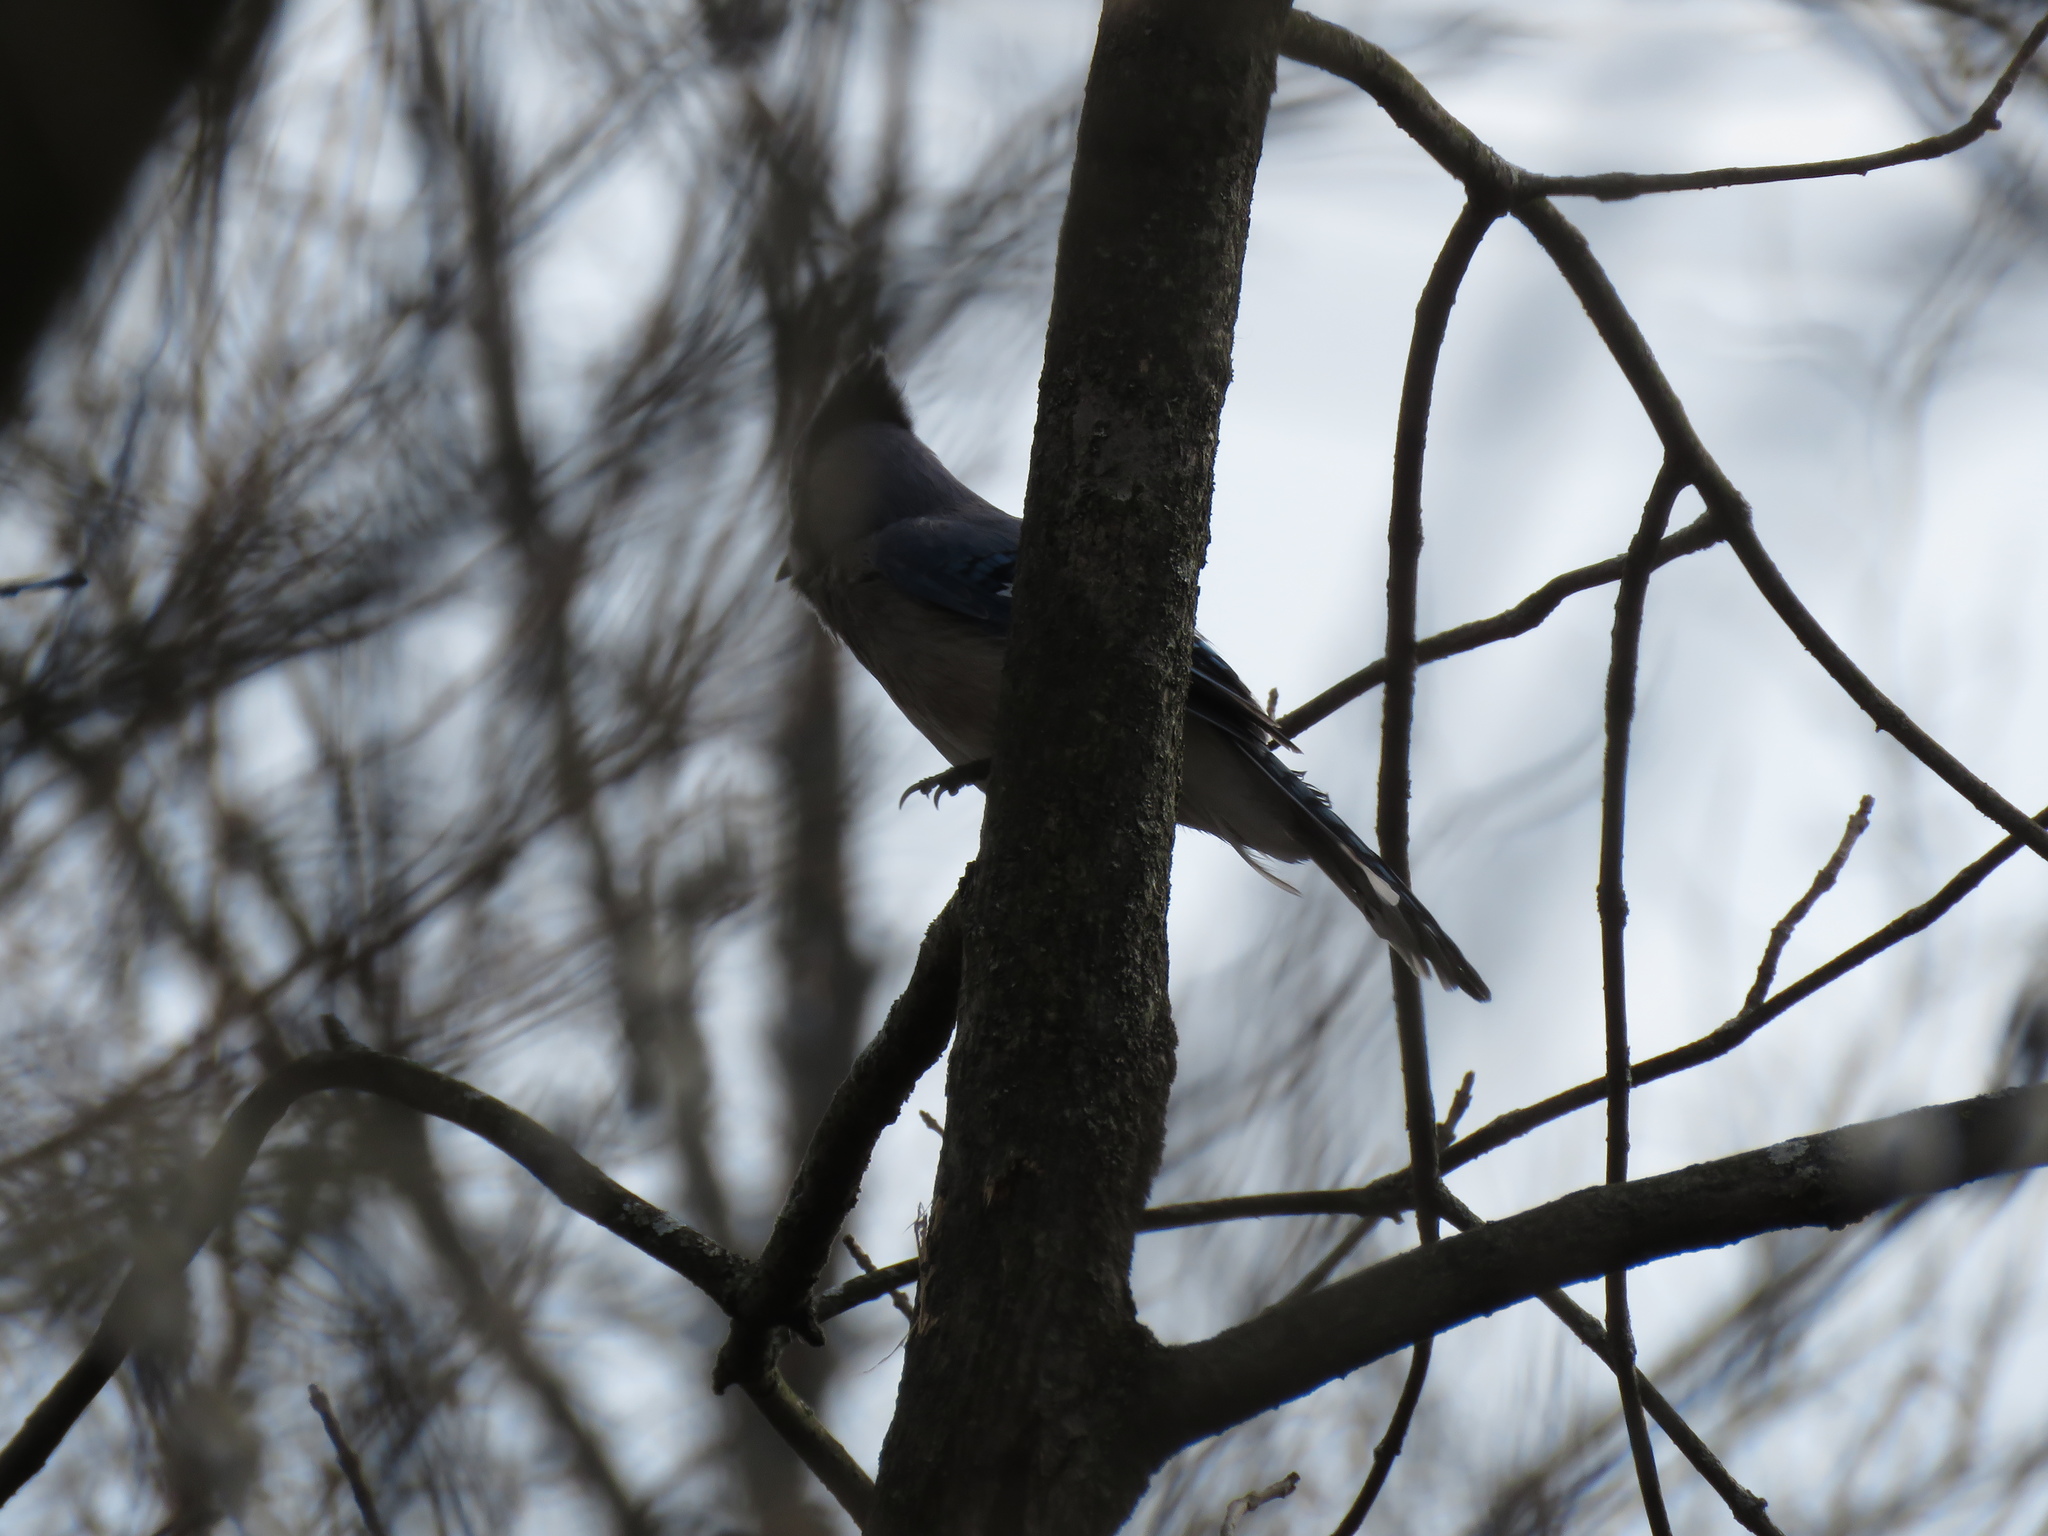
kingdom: Animalia
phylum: Chordata
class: Aves
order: Passeriformes
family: Corvidae
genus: Cyanocitta
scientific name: Cyanocitta cristata
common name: Blue jay
